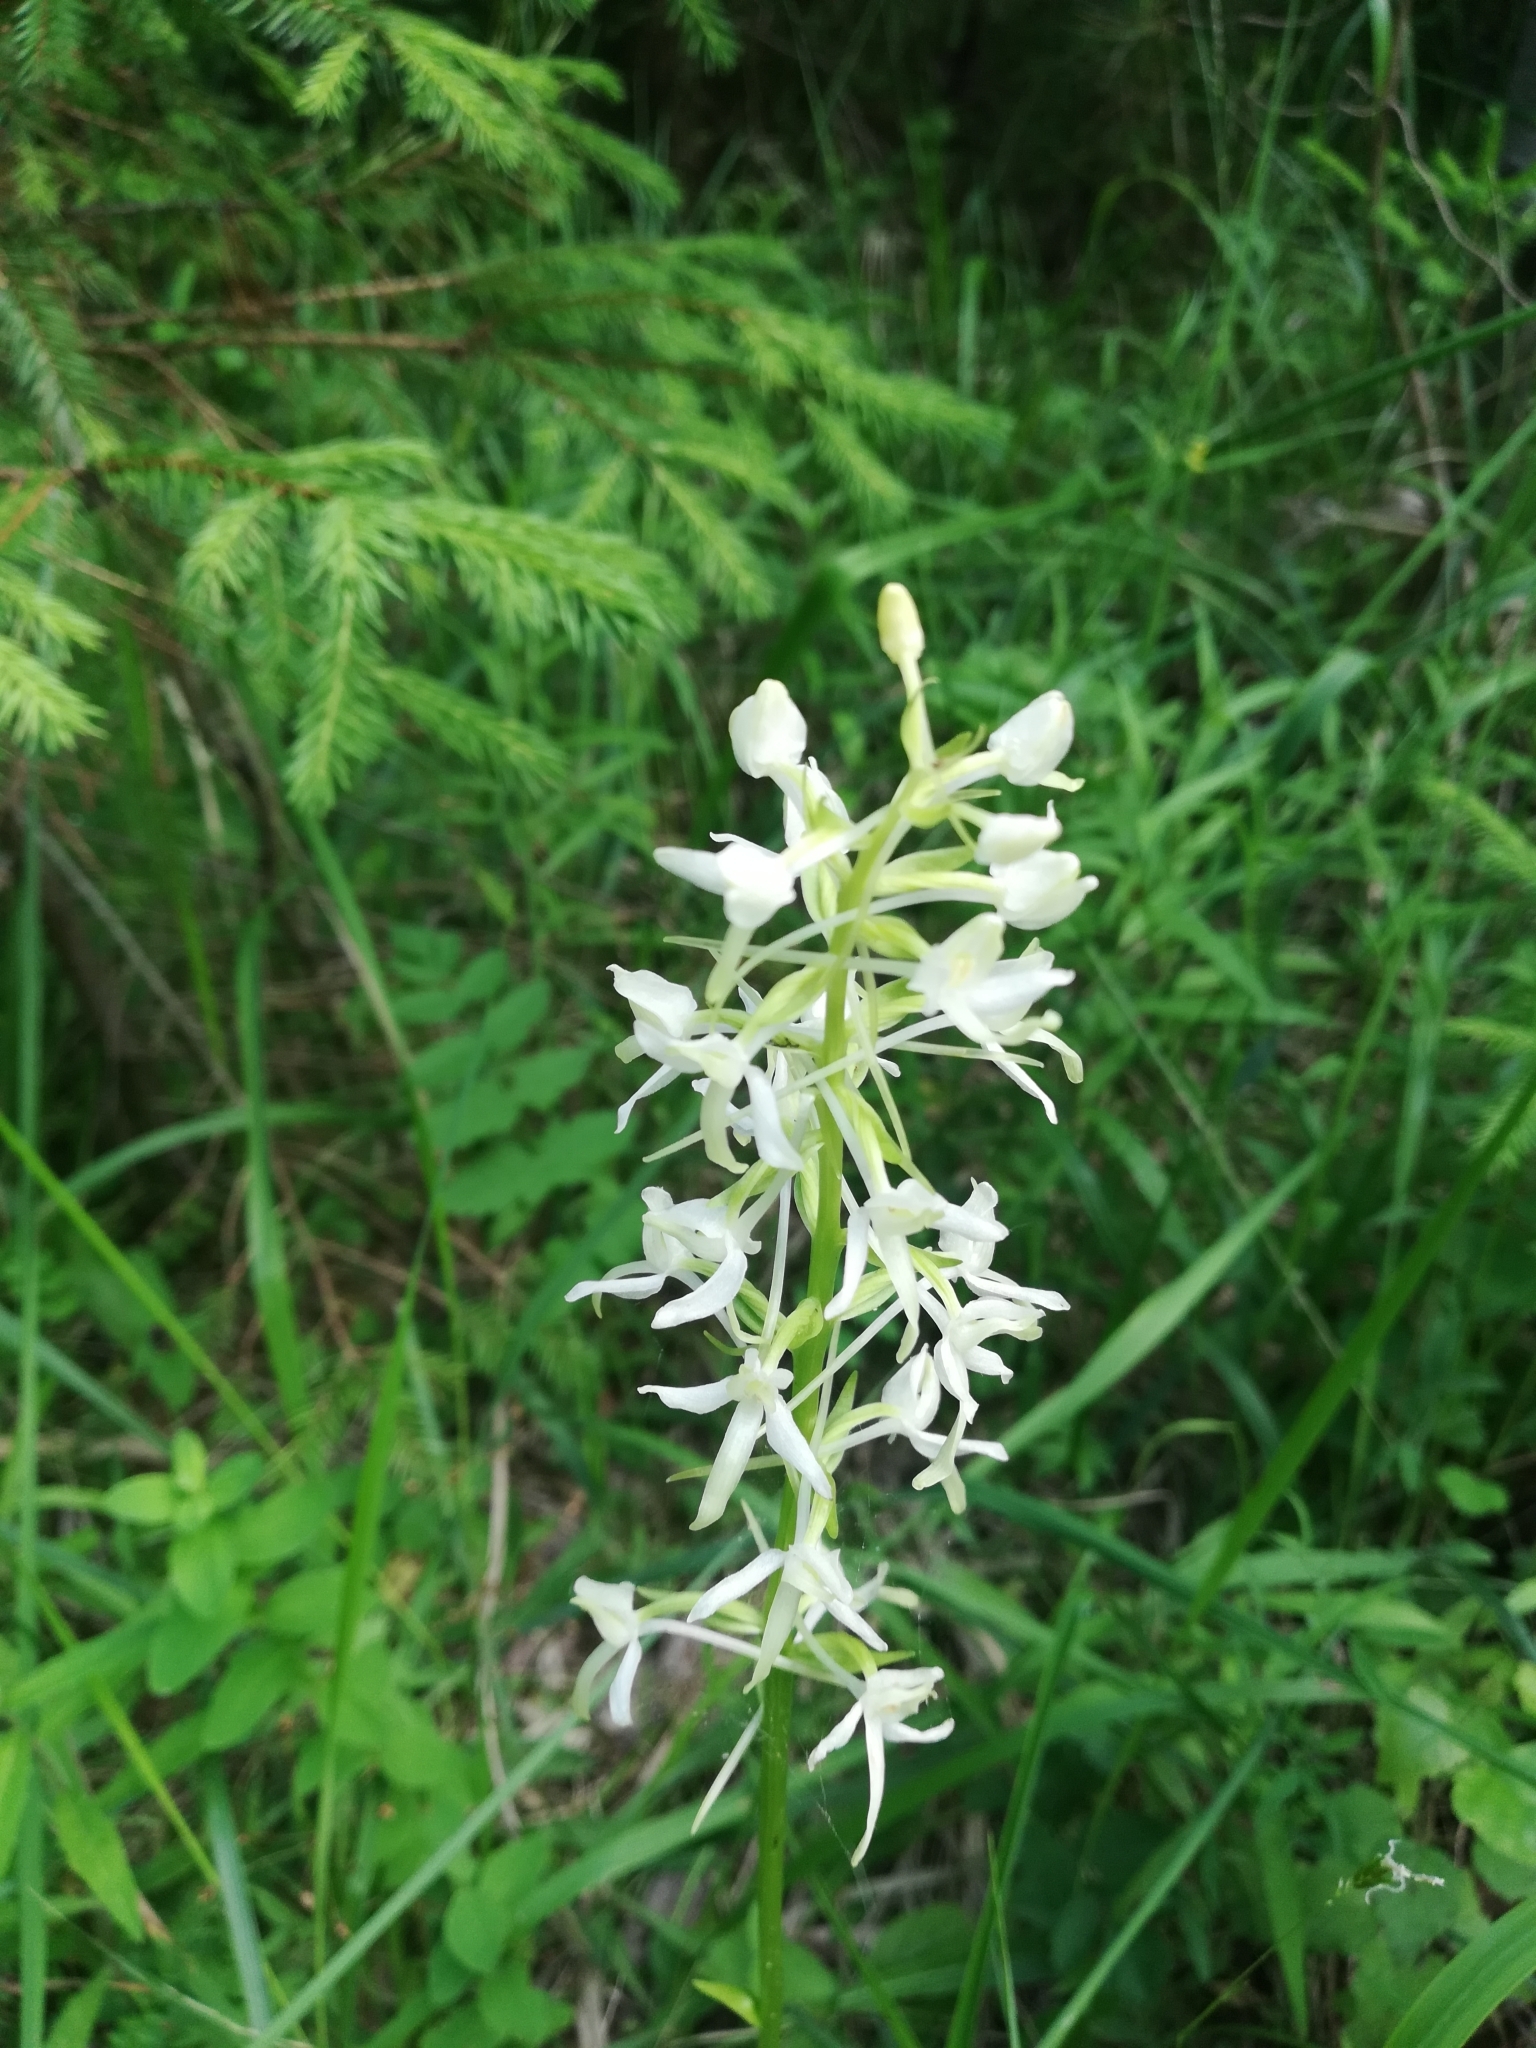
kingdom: Plantae
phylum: Tracheophyta
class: Liliopsida
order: Asparagales
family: Orchidaceae
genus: Platanthera
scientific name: Platanthera bifolia
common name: Lesser butterfly-orchid
